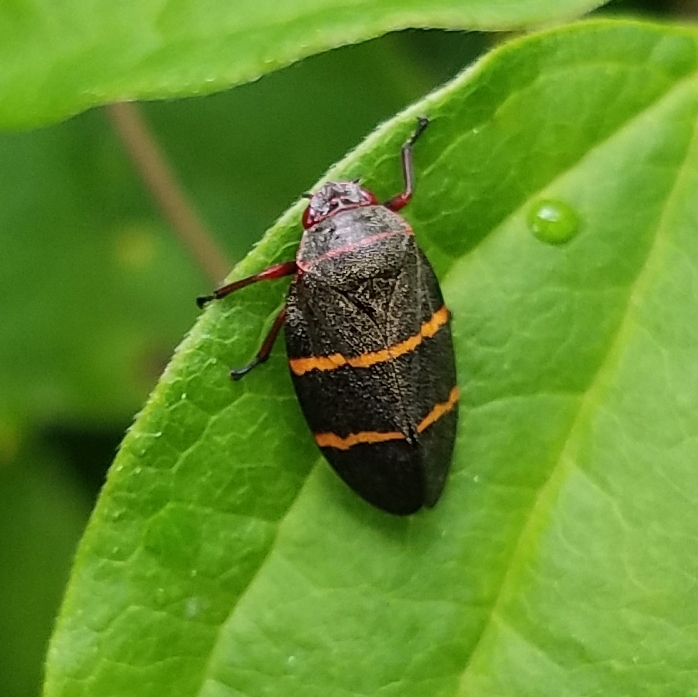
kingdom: Animalia
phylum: Arthropoda
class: Insecta
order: Hemiptera
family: Cercopidae
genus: Prosapia
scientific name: Prosapia bicincta
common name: Twolined spittlebug
